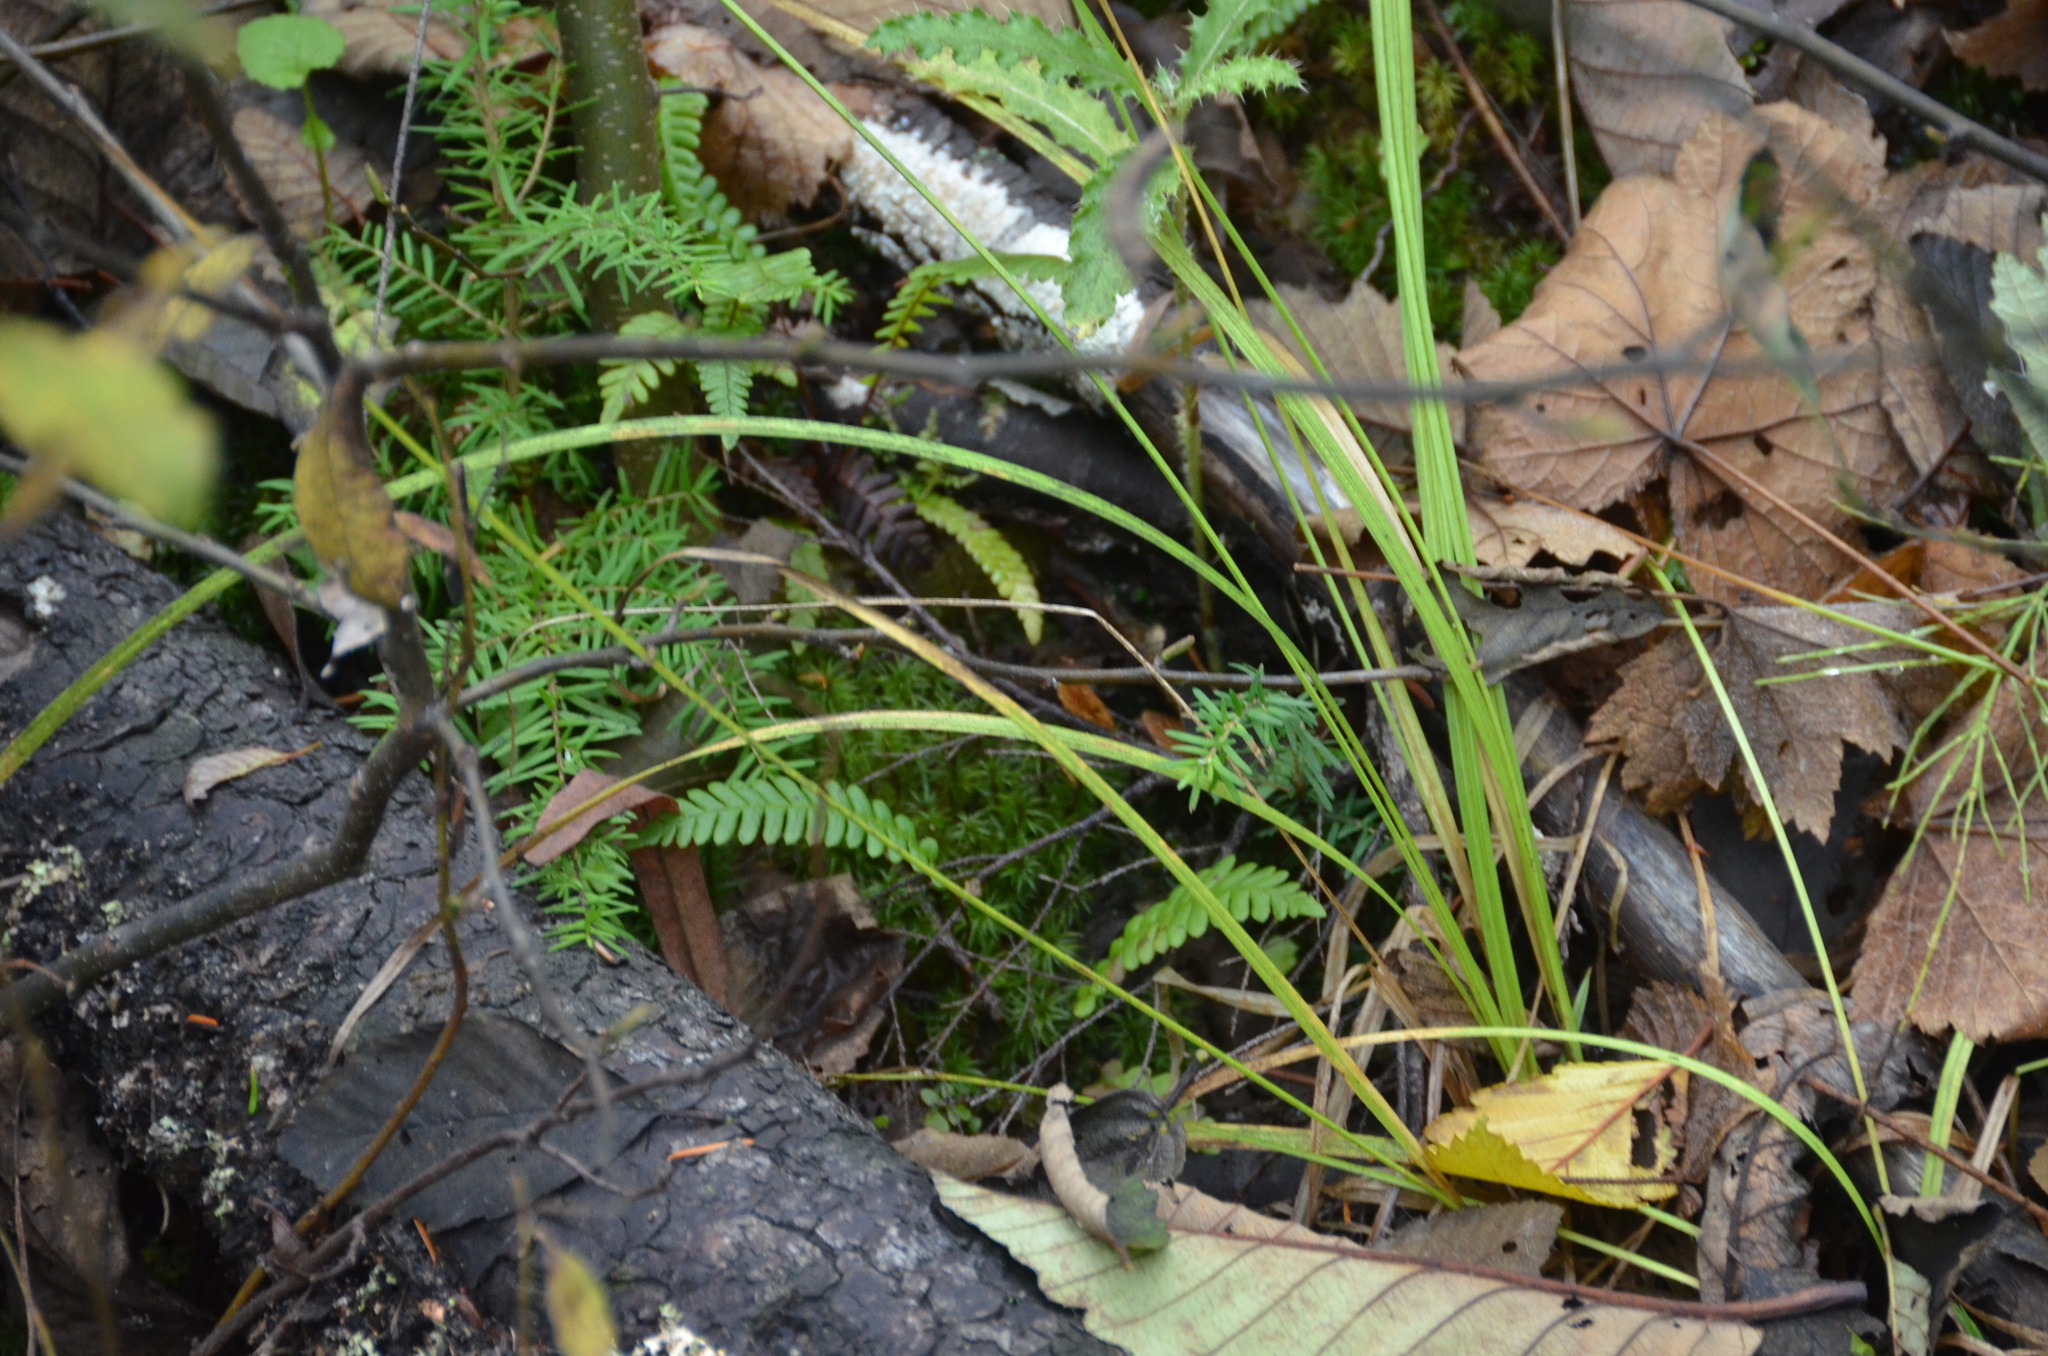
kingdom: Plantae
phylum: Tracheophyta
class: Polypodiopsida
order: Polypodiales
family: Blechnaceae
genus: Struthiopteris
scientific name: Struthiopteris spicant
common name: Deer fern
